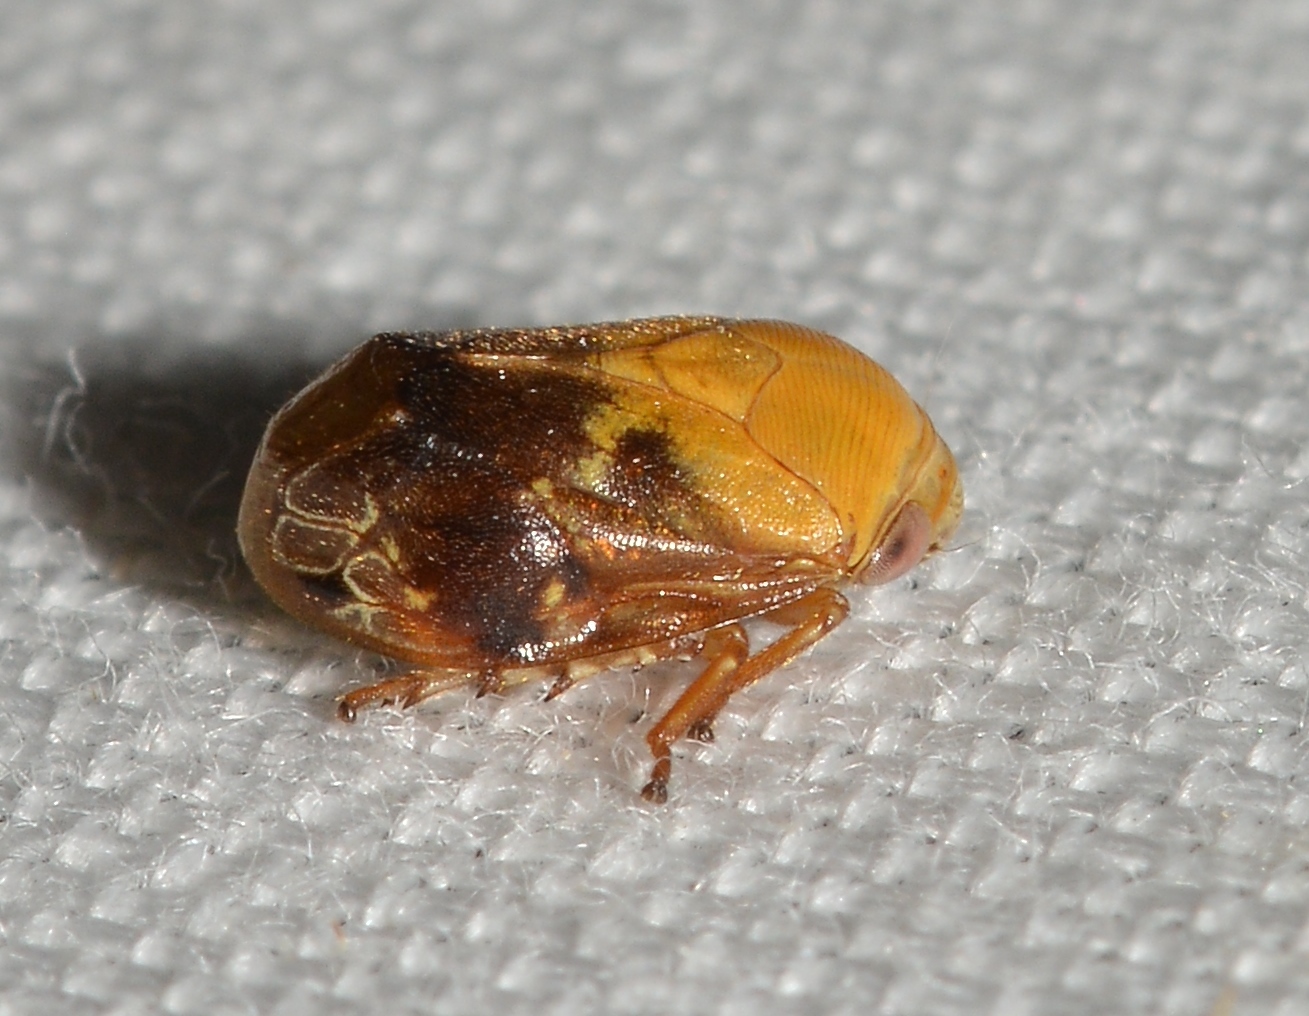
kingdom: Animalia
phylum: Arthropoda
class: Insecta
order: Hemiptera
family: Clastopteridae
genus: Clastoptera
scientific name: Clastoptera achatina
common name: Pecan spittlebug
